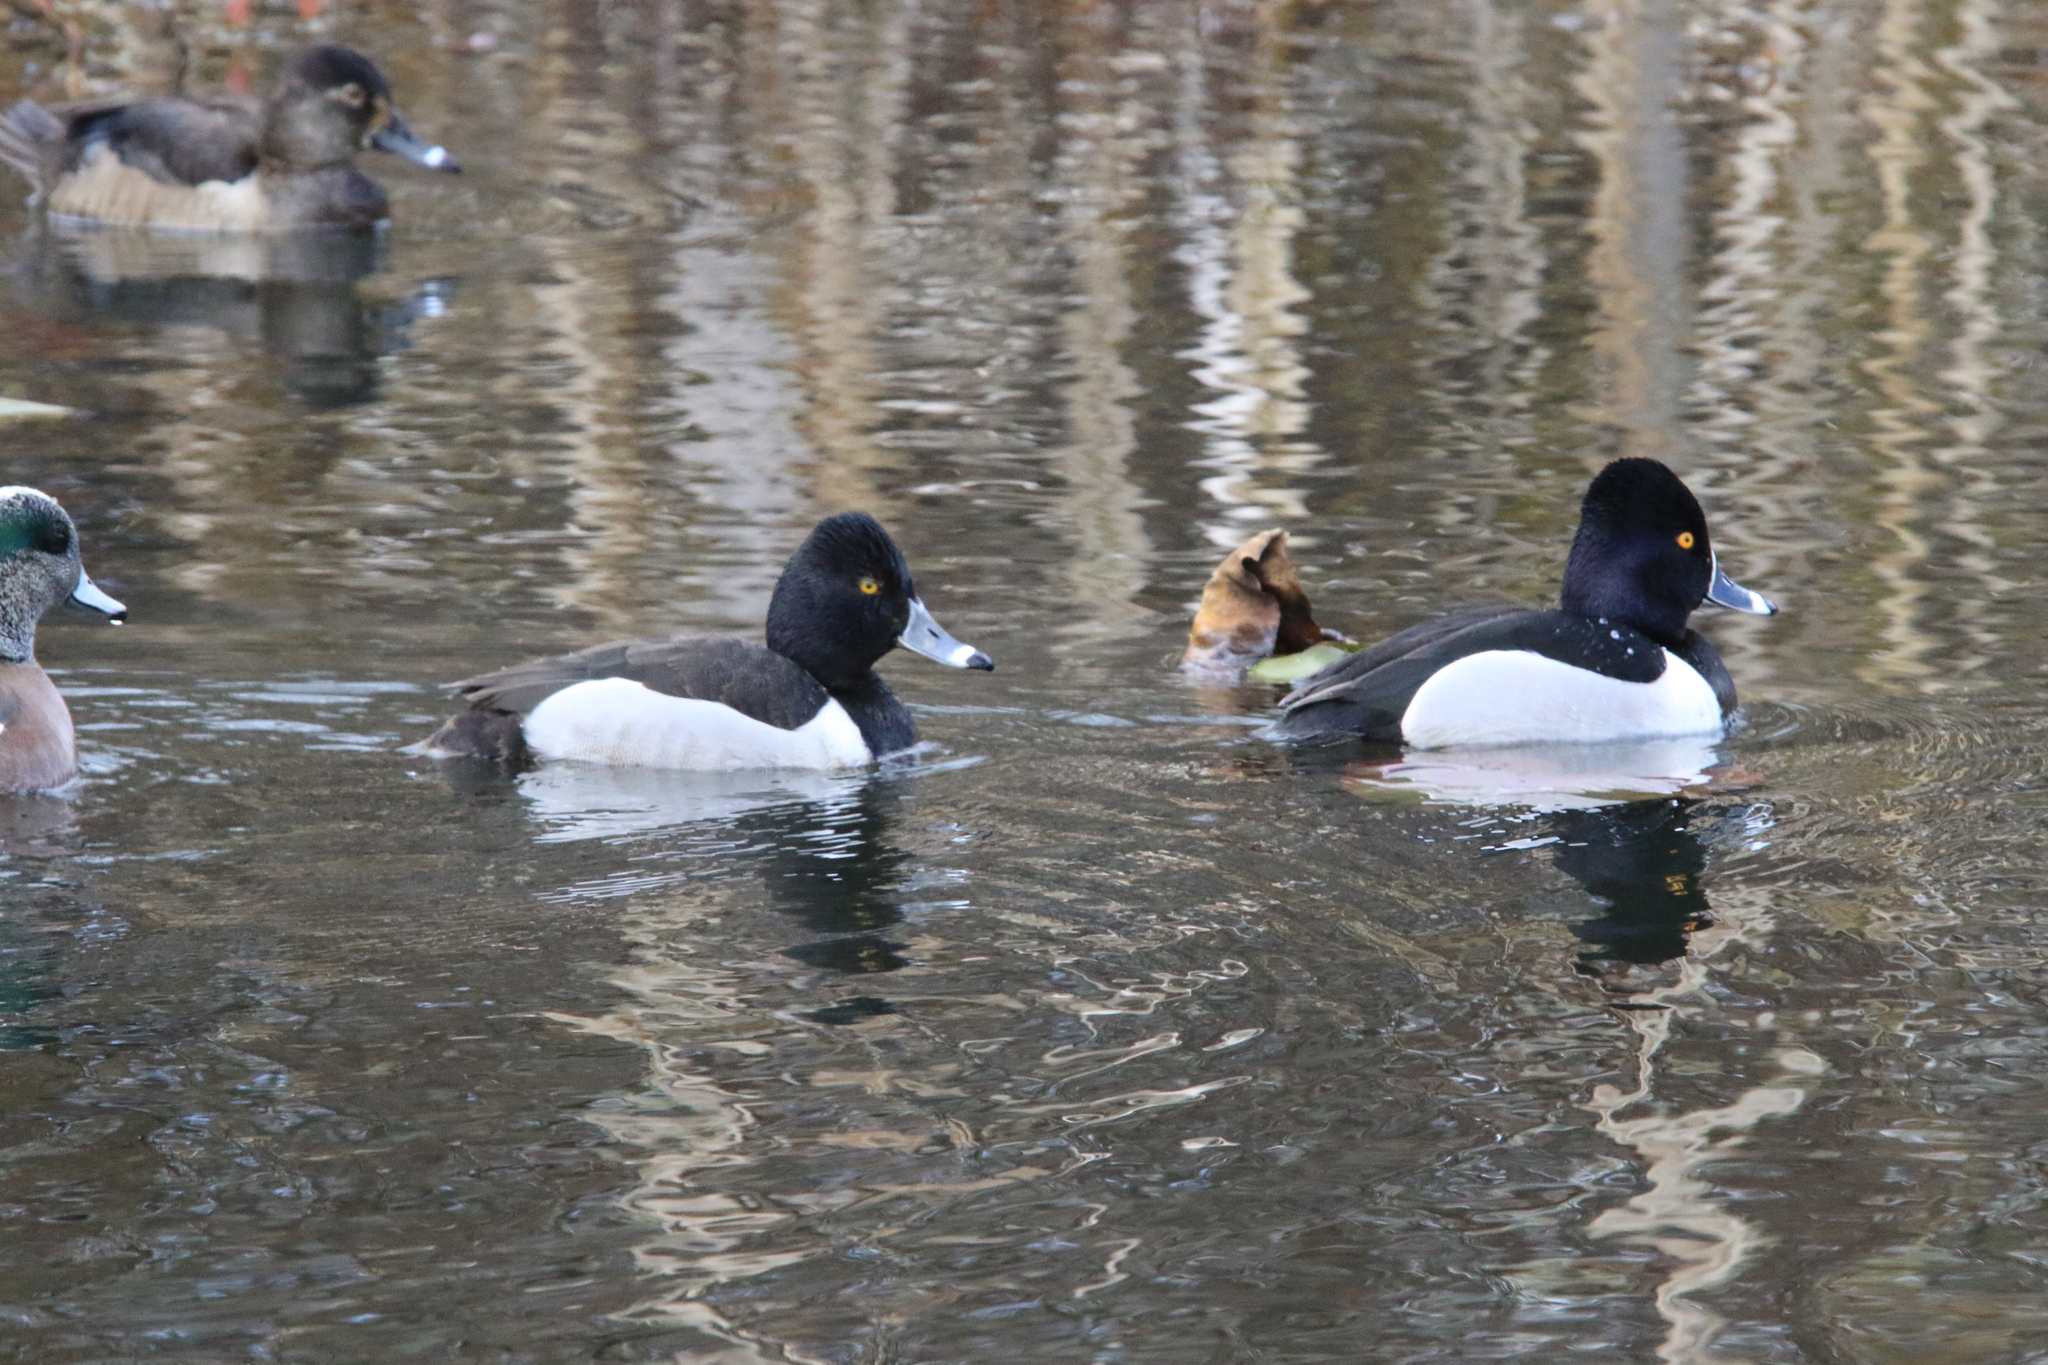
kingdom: Animalia
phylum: Chordata
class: Aves
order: Anseriformes
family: Anatidae
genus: Aythya
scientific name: Aythya collaris
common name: Ring-necked duck
